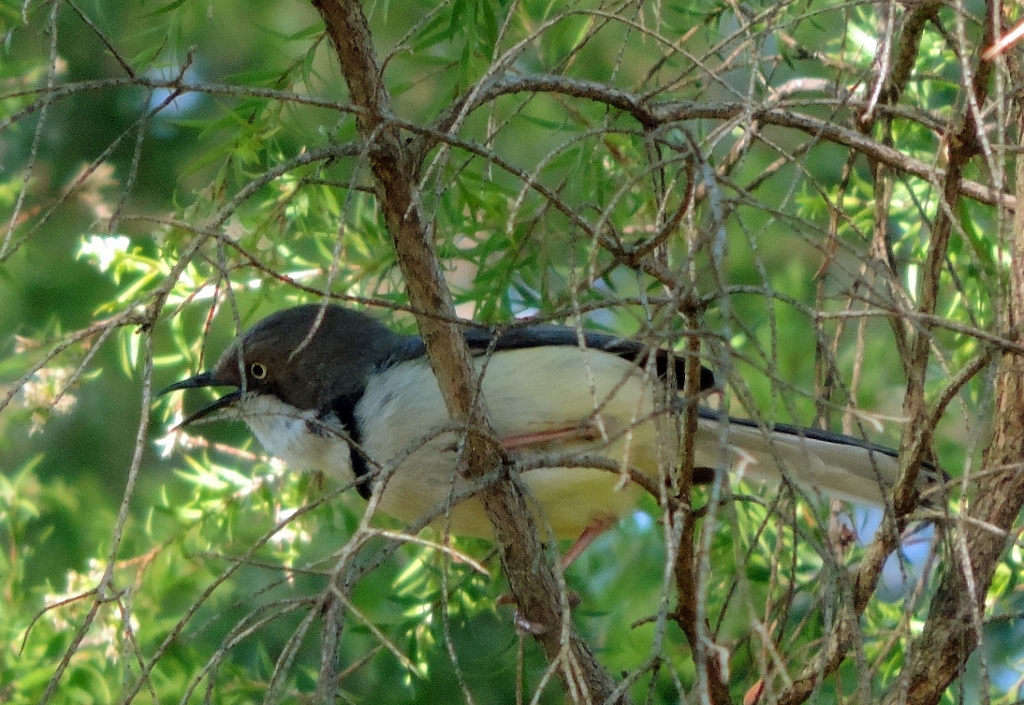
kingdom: Animalia
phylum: Chordata
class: Aves
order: Passeriformes
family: Cisticolidae
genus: Apalis
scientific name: Apalis thoracica
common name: Bar-throated apalis
